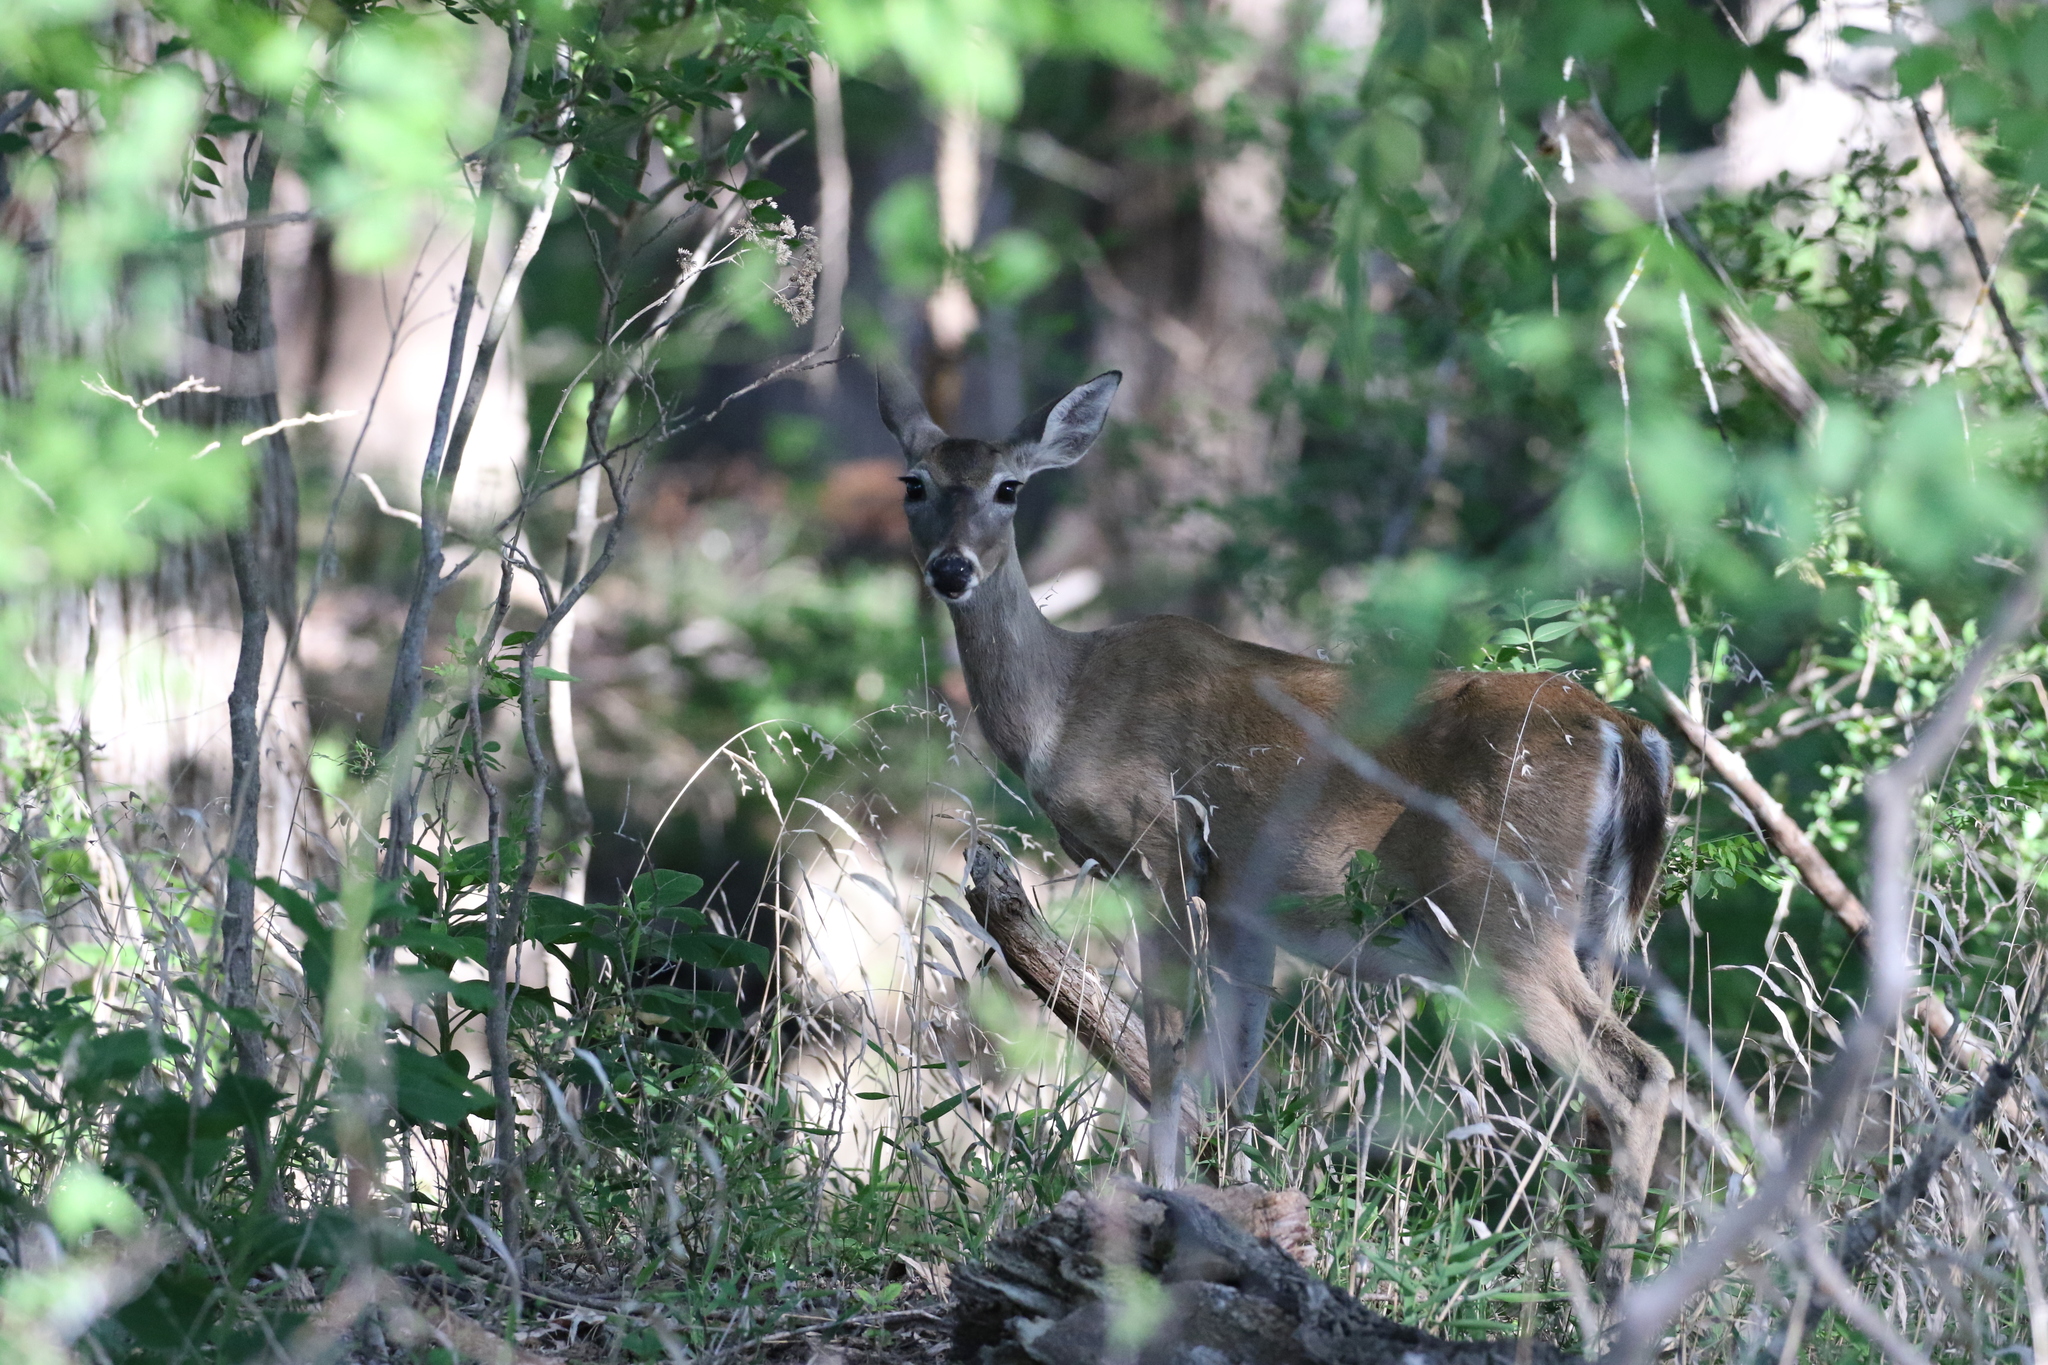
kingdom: Animalia
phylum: Chordata
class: Mammalia
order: Artiodactyla
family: Cervidae
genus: Odocoileus
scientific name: Odocoileus virginianus
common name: White-tailed deer
